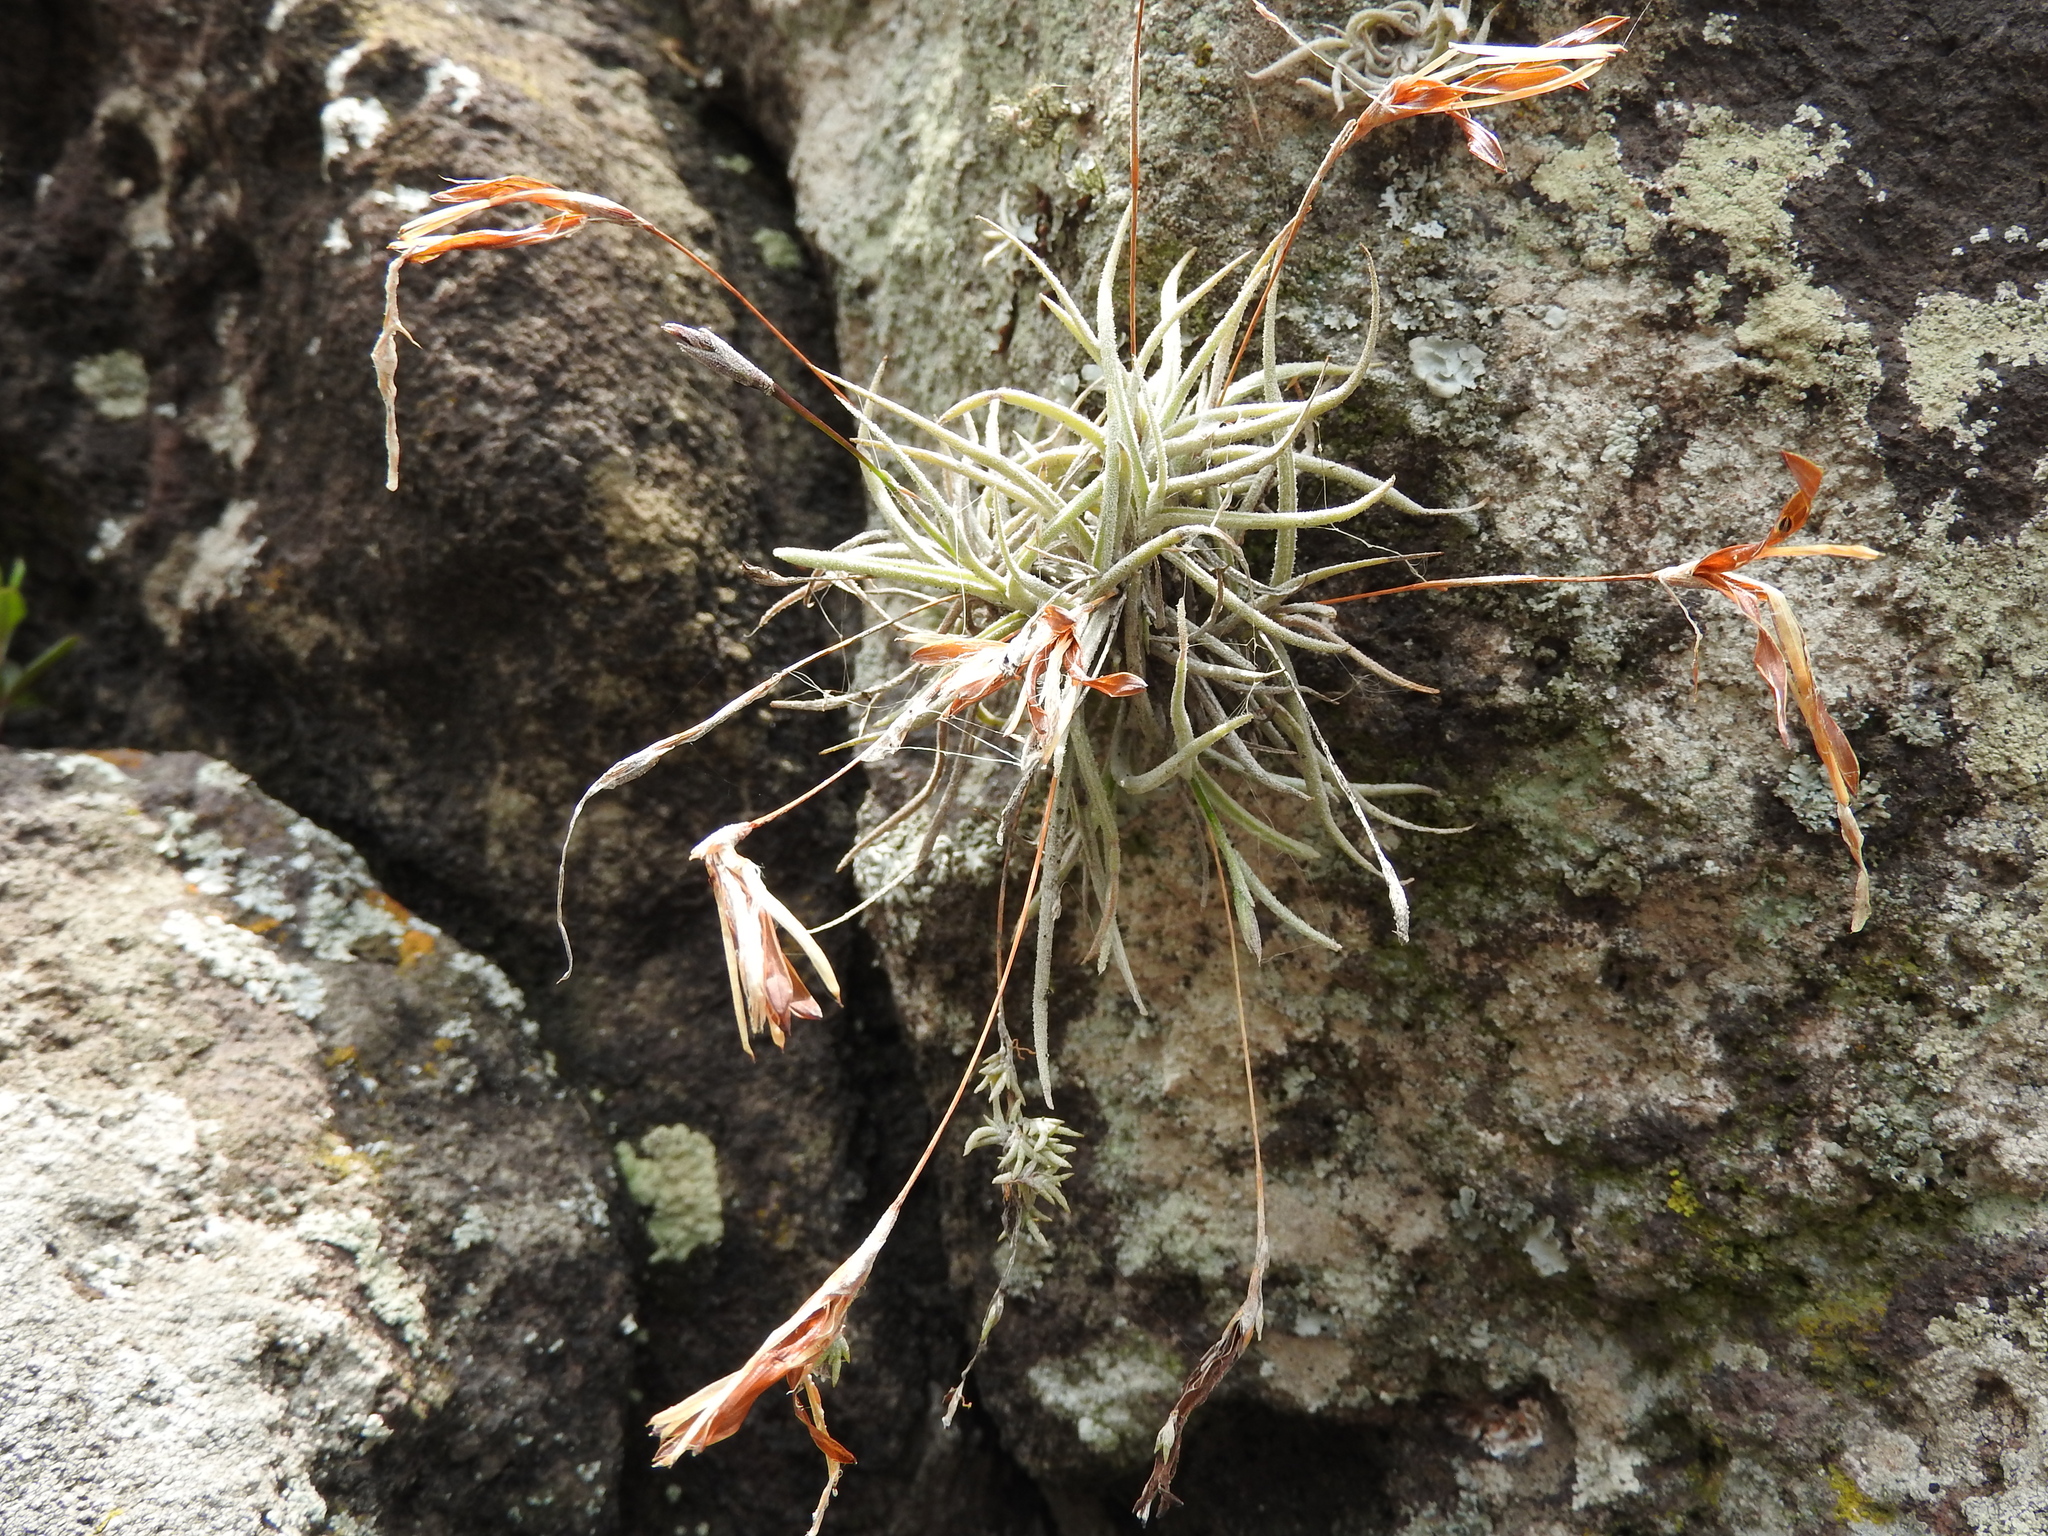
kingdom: Plantae
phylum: Tracheophyta
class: Liliopsida
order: Poales
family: Bromeliaceae
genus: Tillandsia
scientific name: Tillandsia recurvata
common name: Small ballmoss
